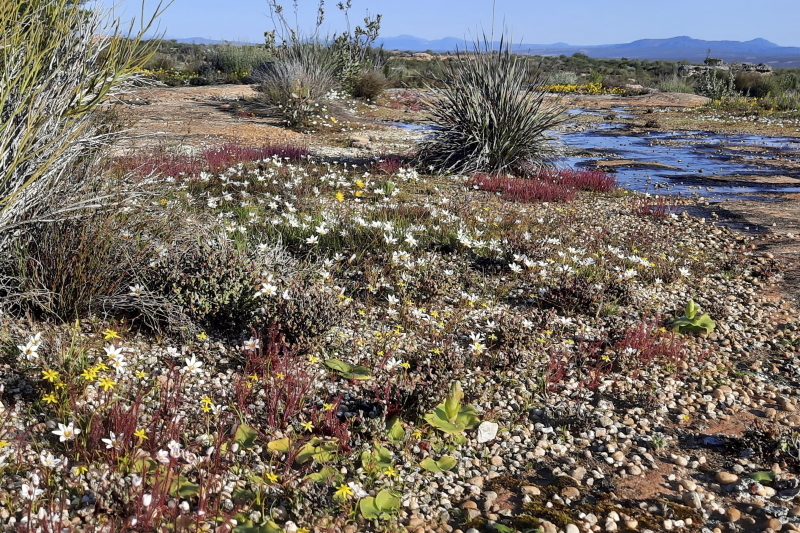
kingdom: Plantae
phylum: Tracheophyta
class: Liliopsida
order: Asparagales
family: Orchidaceae
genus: Satyrium
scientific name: Satyrium erectum
